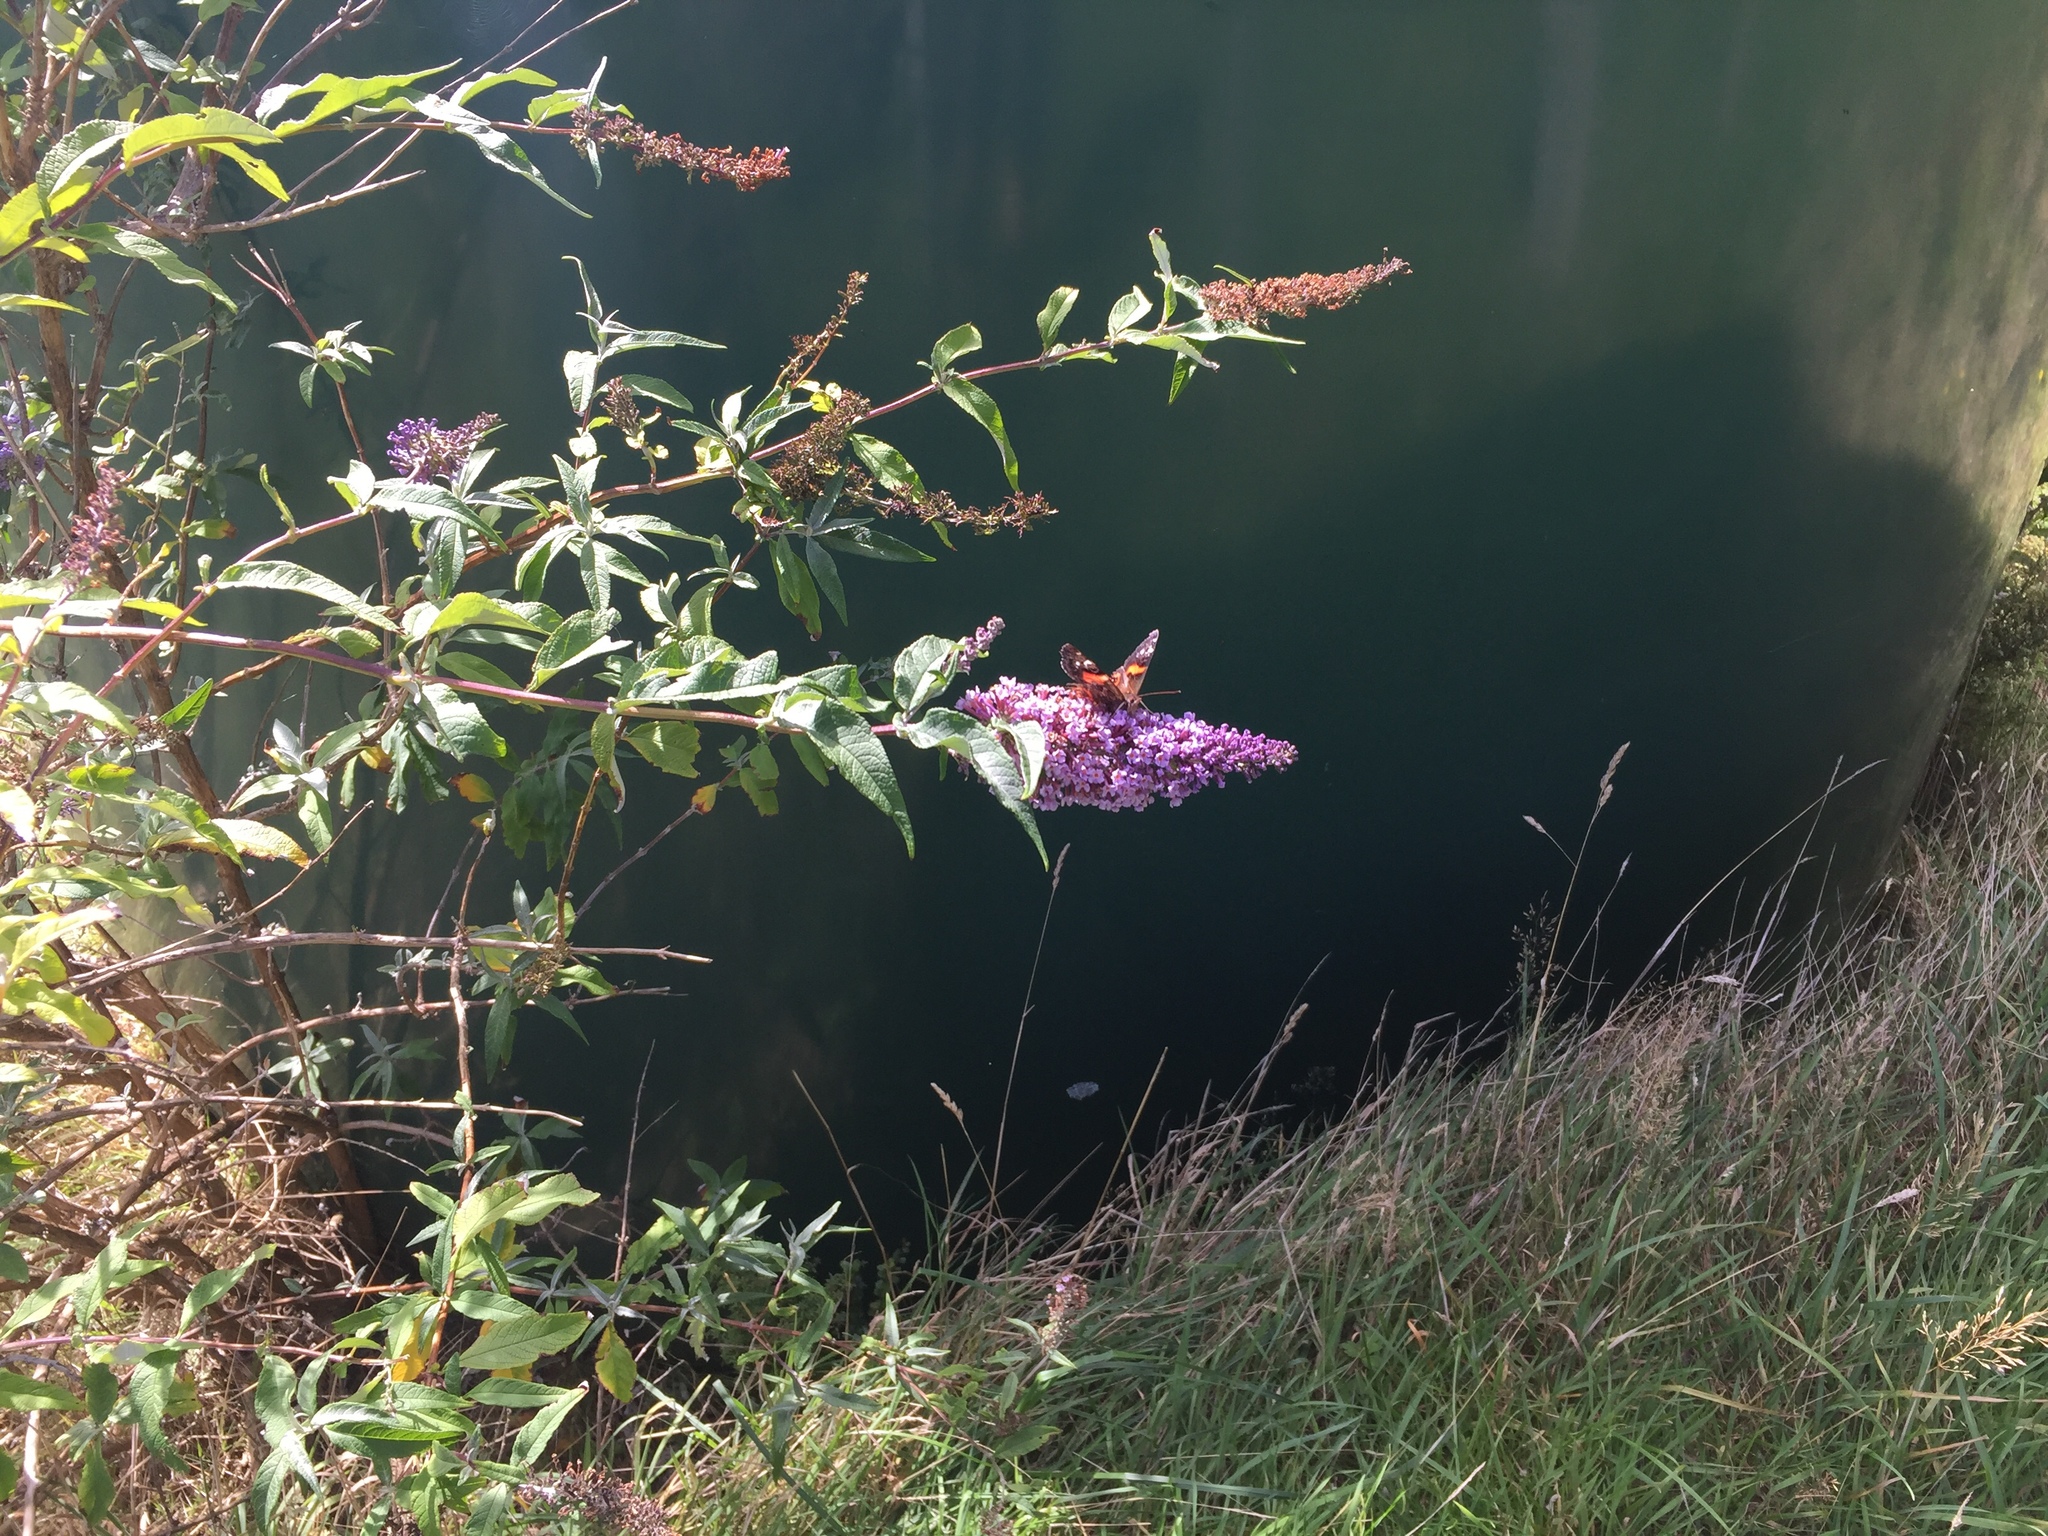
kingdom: Animalia
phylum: Arthropoda
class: Insecta
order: Lepidoptera
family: Nymphalidae
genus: Vanessa
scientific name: Vanessa gonerilla
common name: New zealand red admiral
